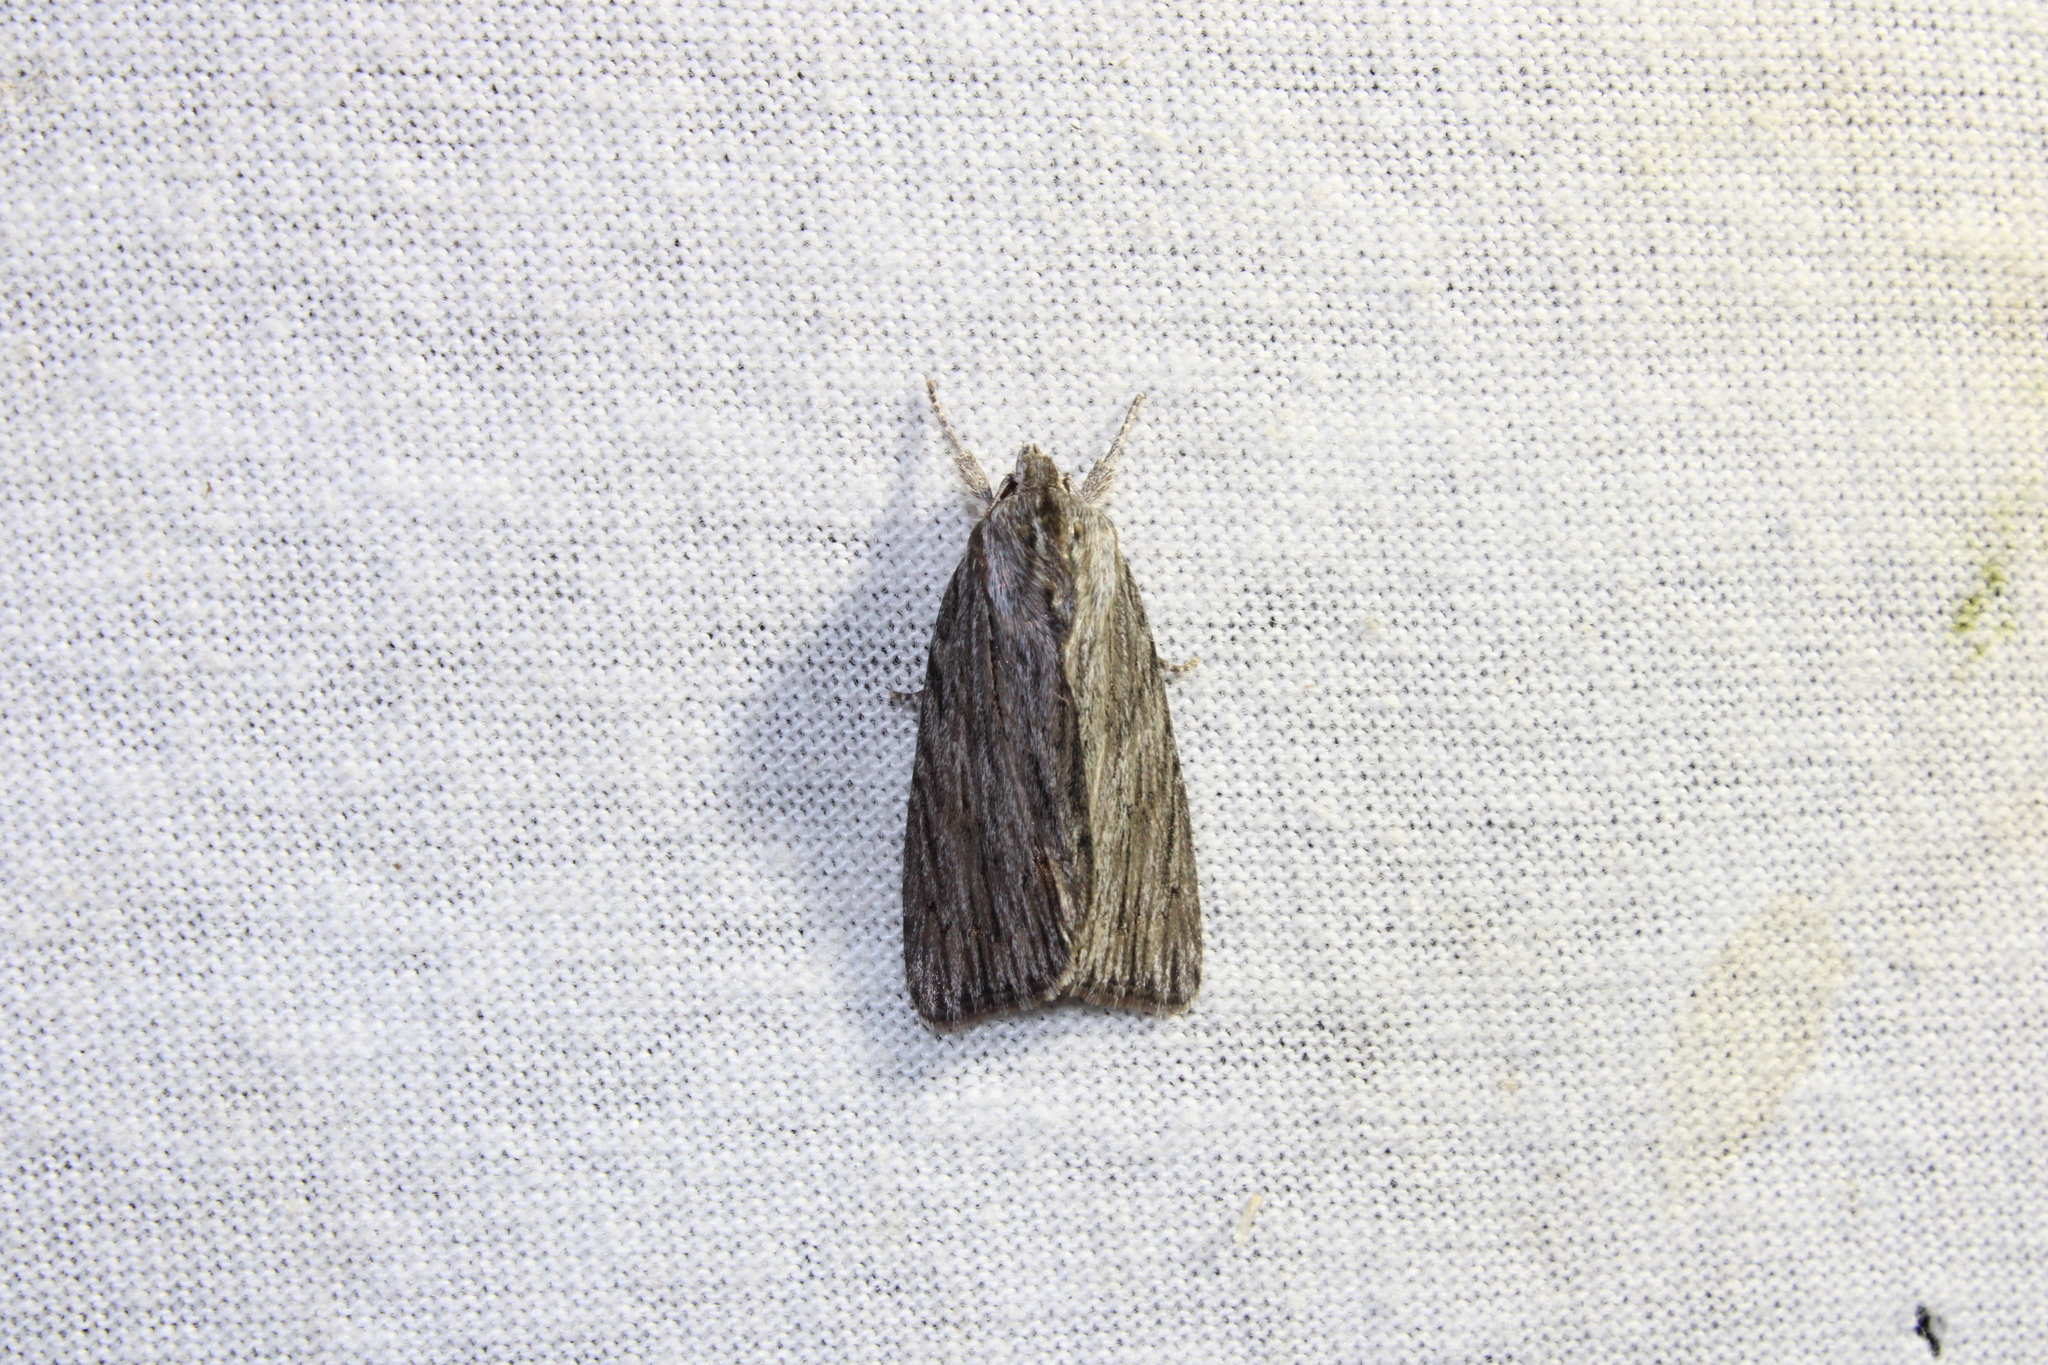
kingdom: Animalia
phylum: Arthropoda
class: Insecta
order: Lepidoptera
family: Noctuidae
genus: Acronicta
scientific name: Acronicta lithospila
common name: Streaked dagger
